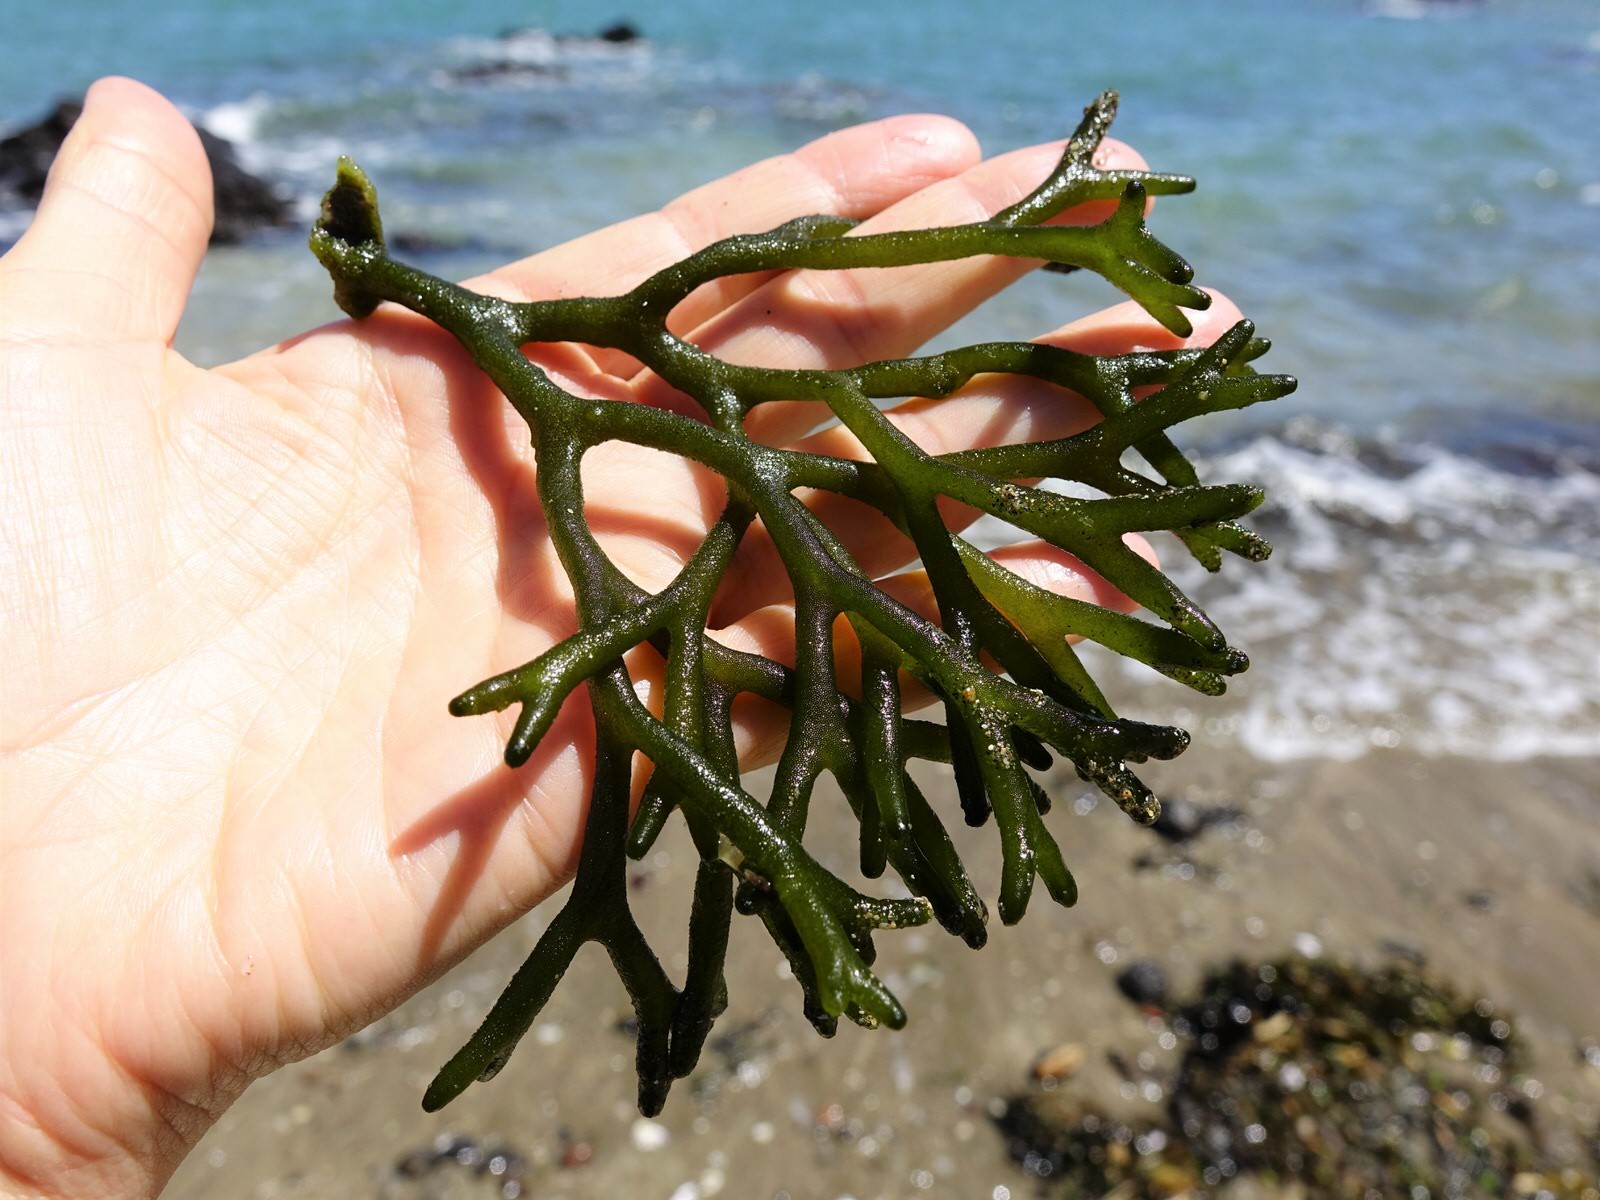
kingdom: Plantae
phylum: Chlorophyta
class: Ulvophyceae
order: Bryopsidales
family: Codiaceae
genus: Codium
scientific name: Codium fragile
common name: Dead man's fingers
